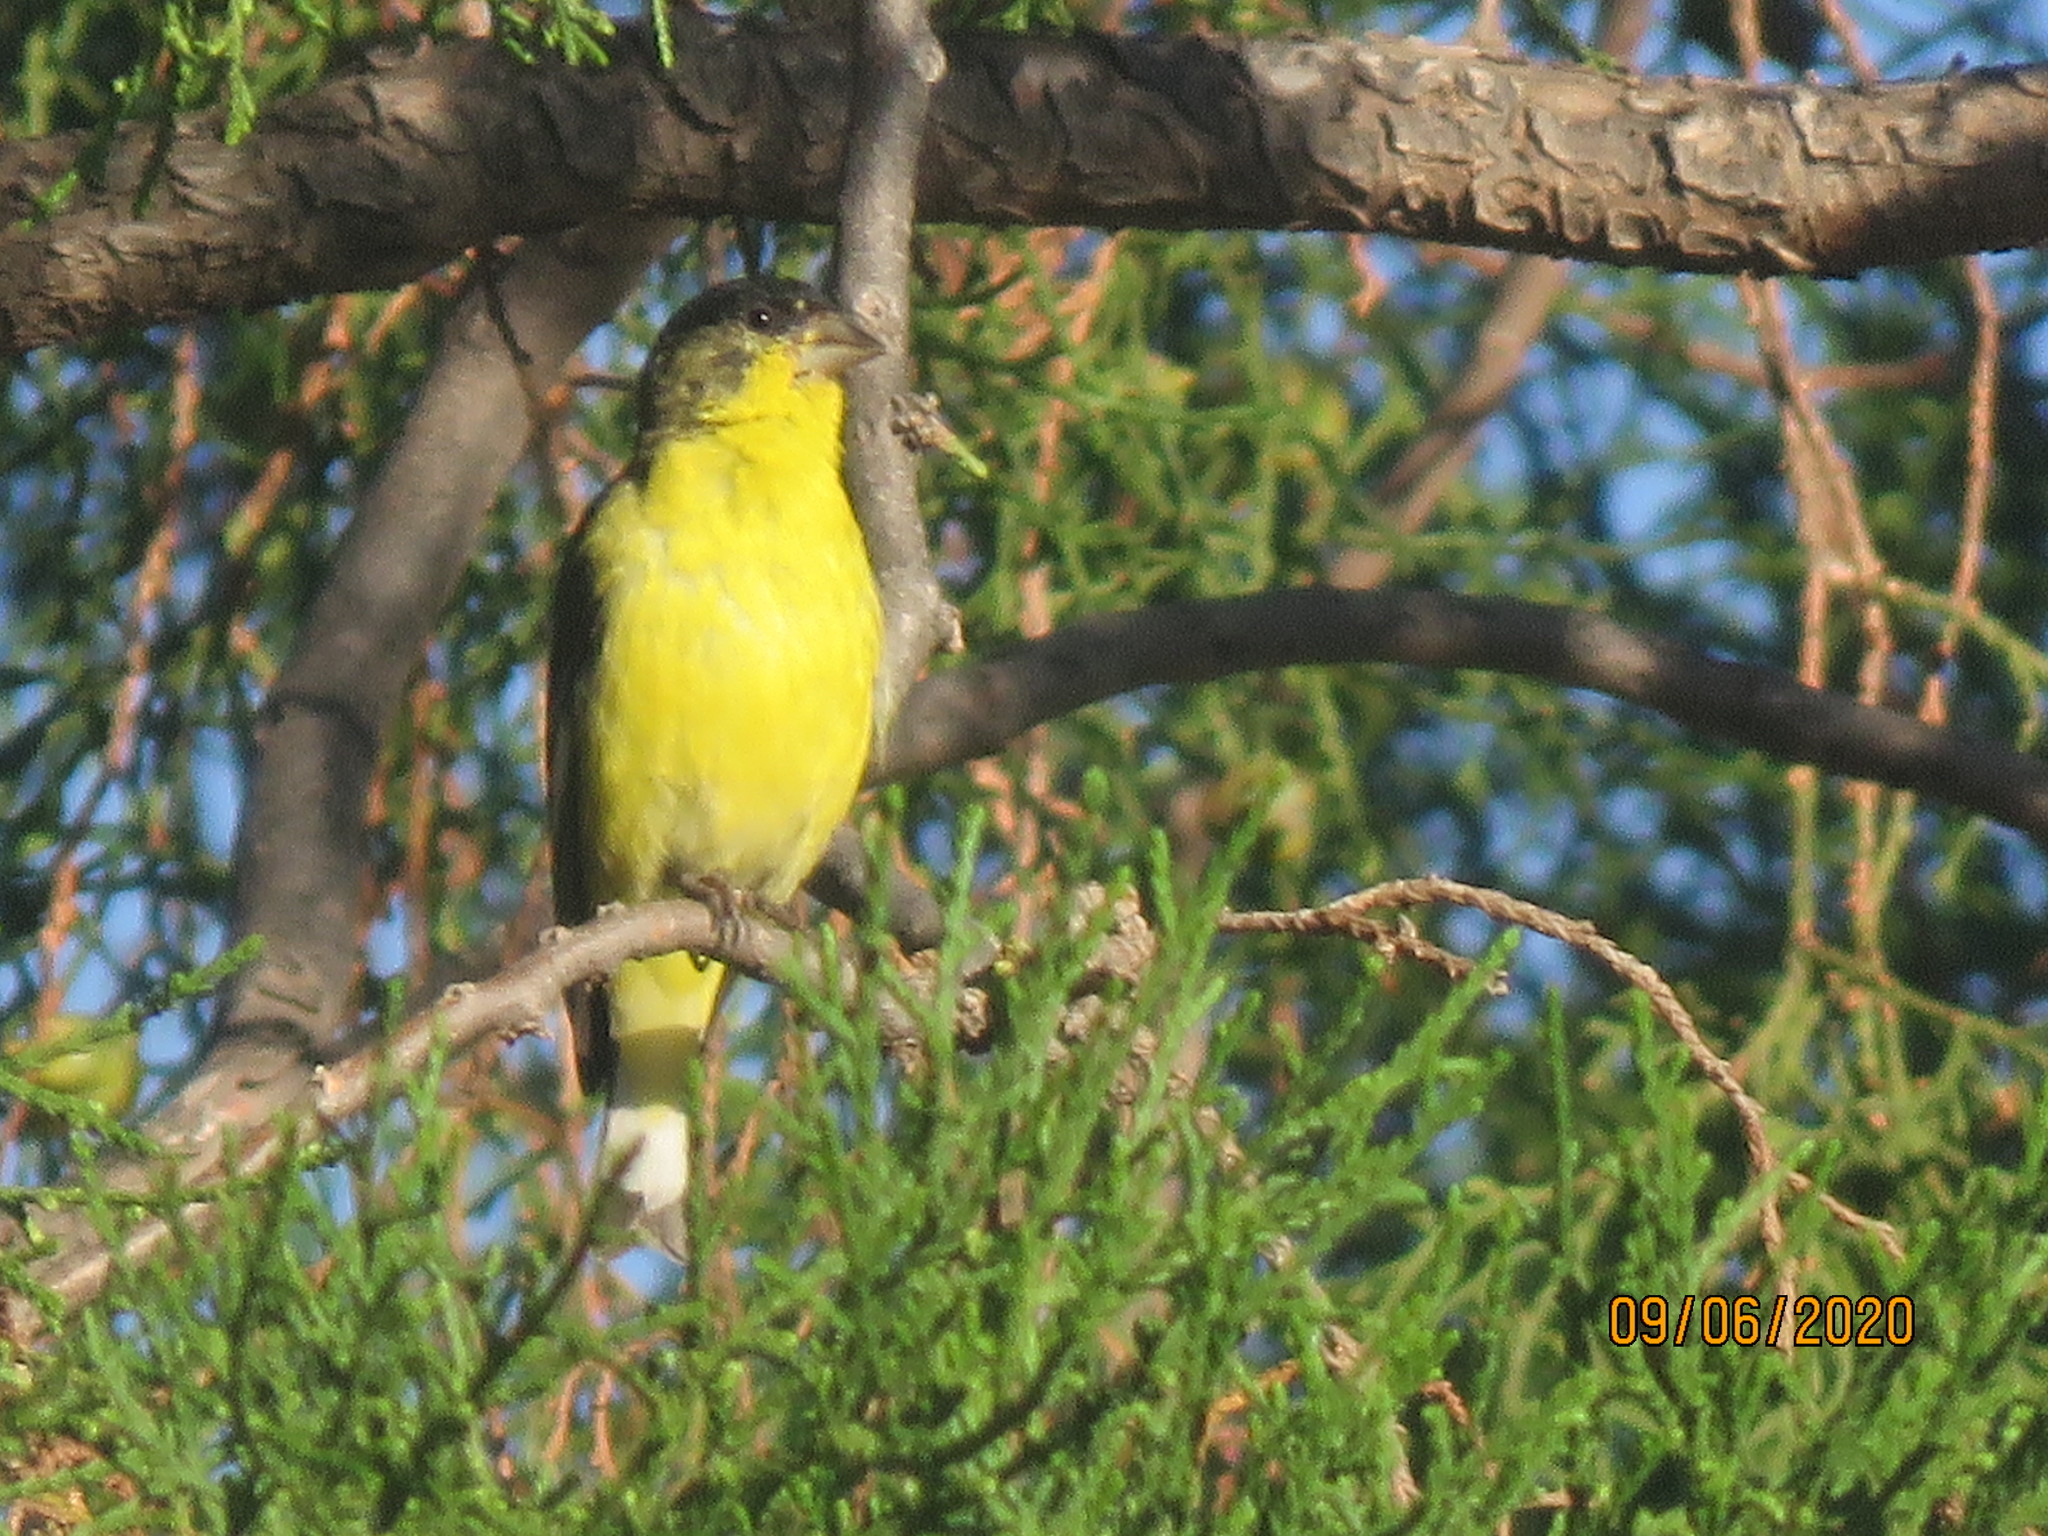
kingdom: Animalia
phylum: Chordata
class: Aves
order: Passeriformes
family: Fringillidae
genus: Spinus
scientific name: Spinus psaltria
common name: Lesser goldfinch
